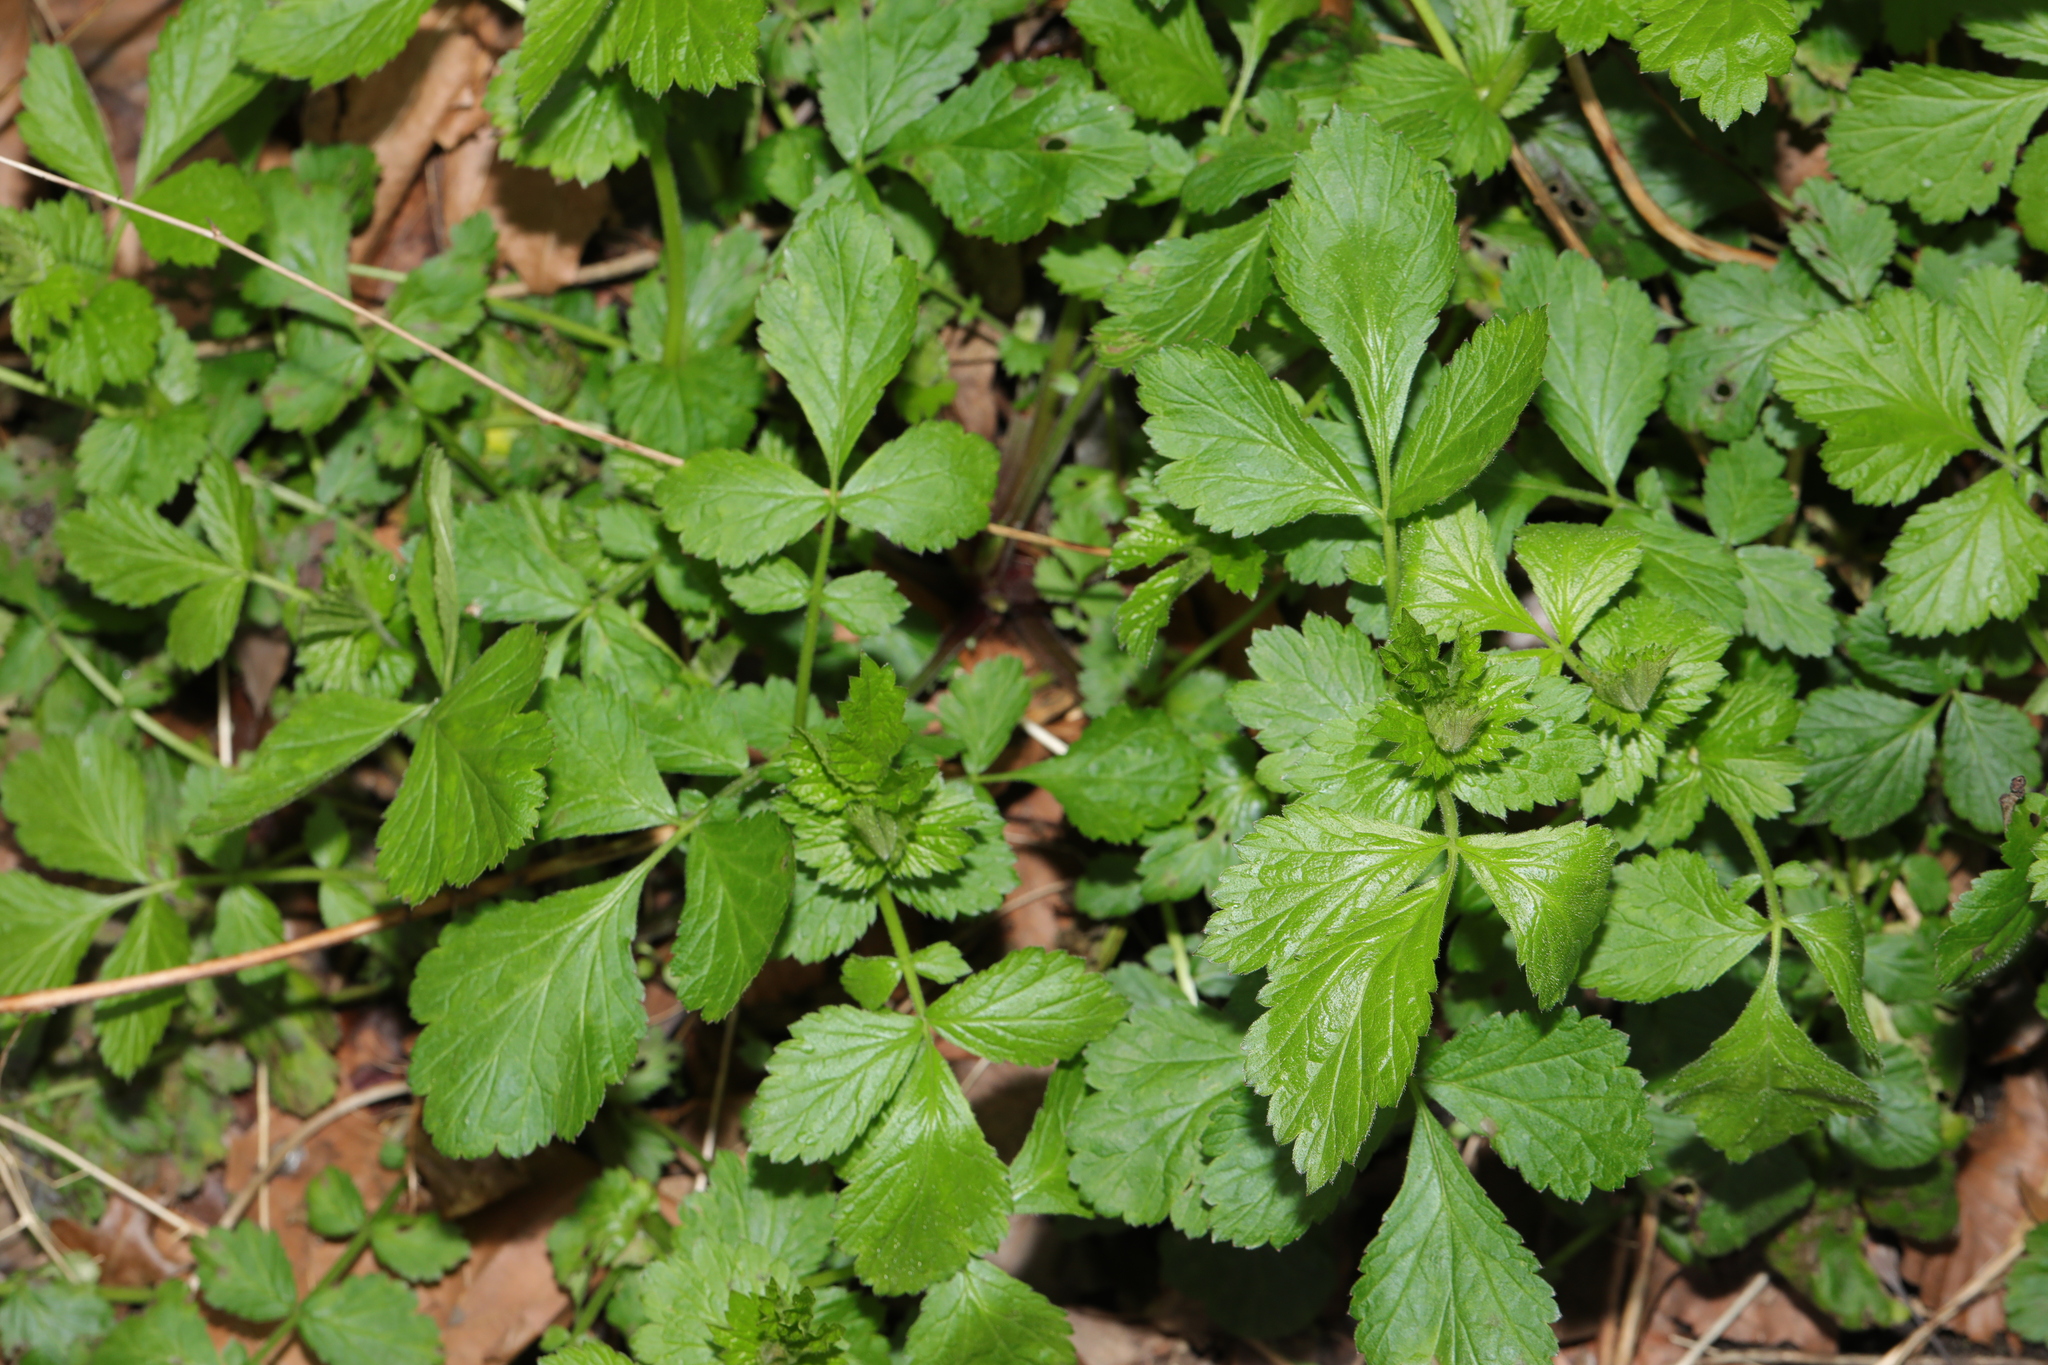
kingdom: Plantae
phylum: Tracheophyta
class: Magnoliopsida
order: Rosales
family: Rosaceae
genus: Geum
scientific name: Geum urbanum
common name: Wood avens
